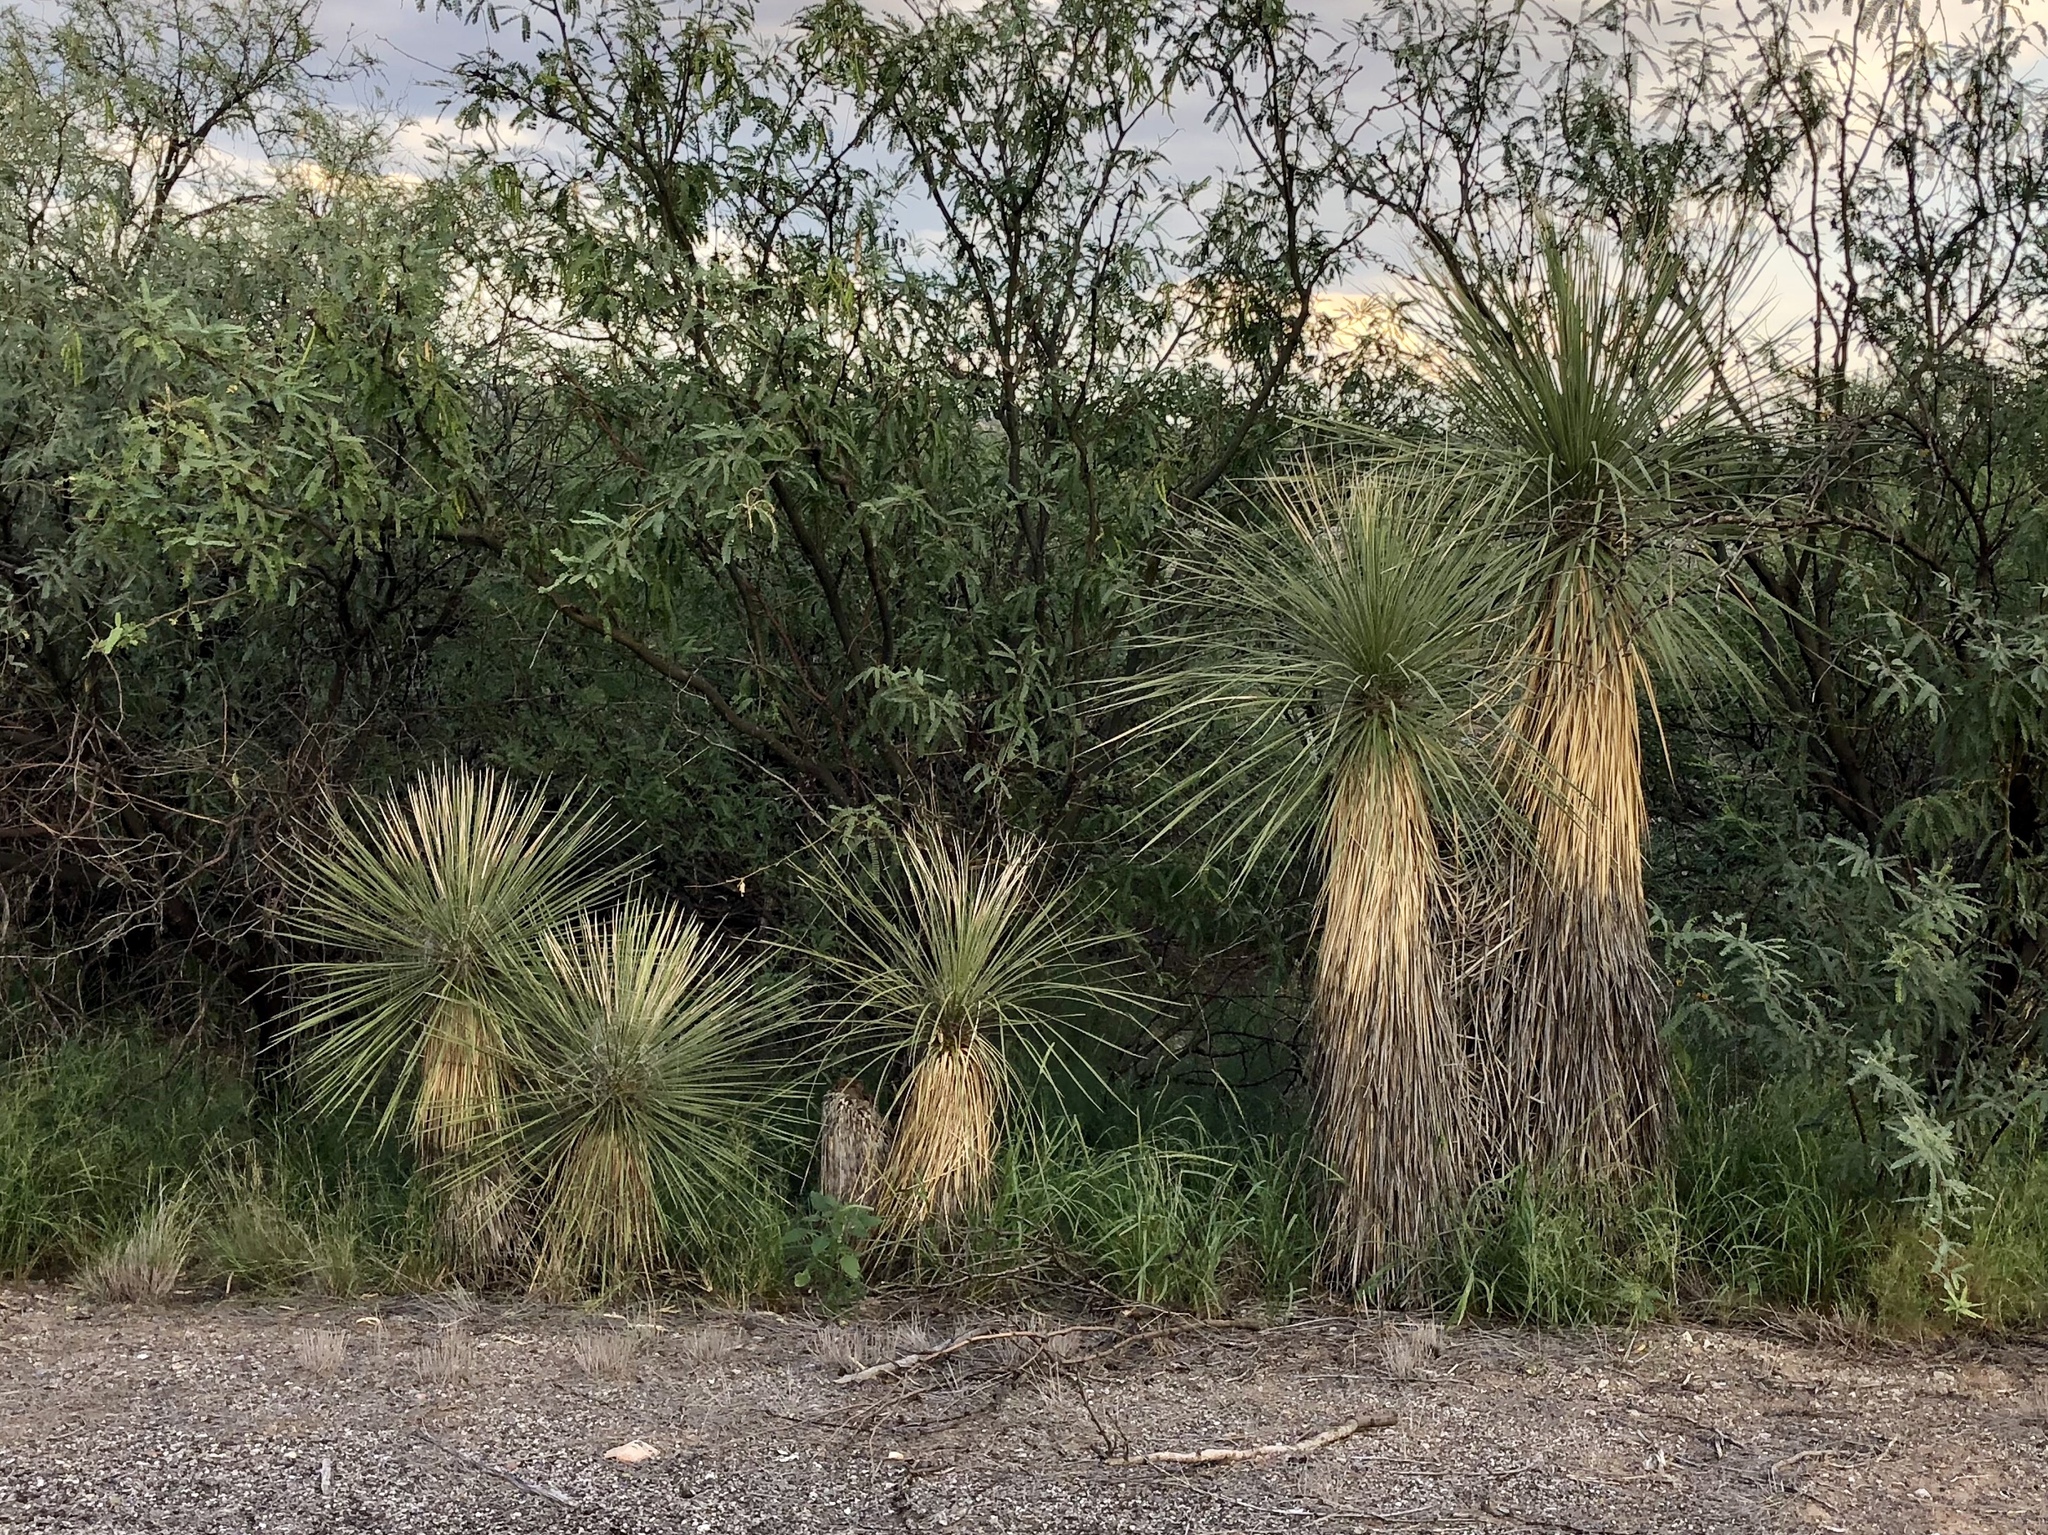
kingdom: Plantae
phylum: Tracheophyta
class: Liliopsida
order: Asparagales
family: Asparagaceae
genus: Yucca
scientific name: Yucca elata
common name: Palmella
